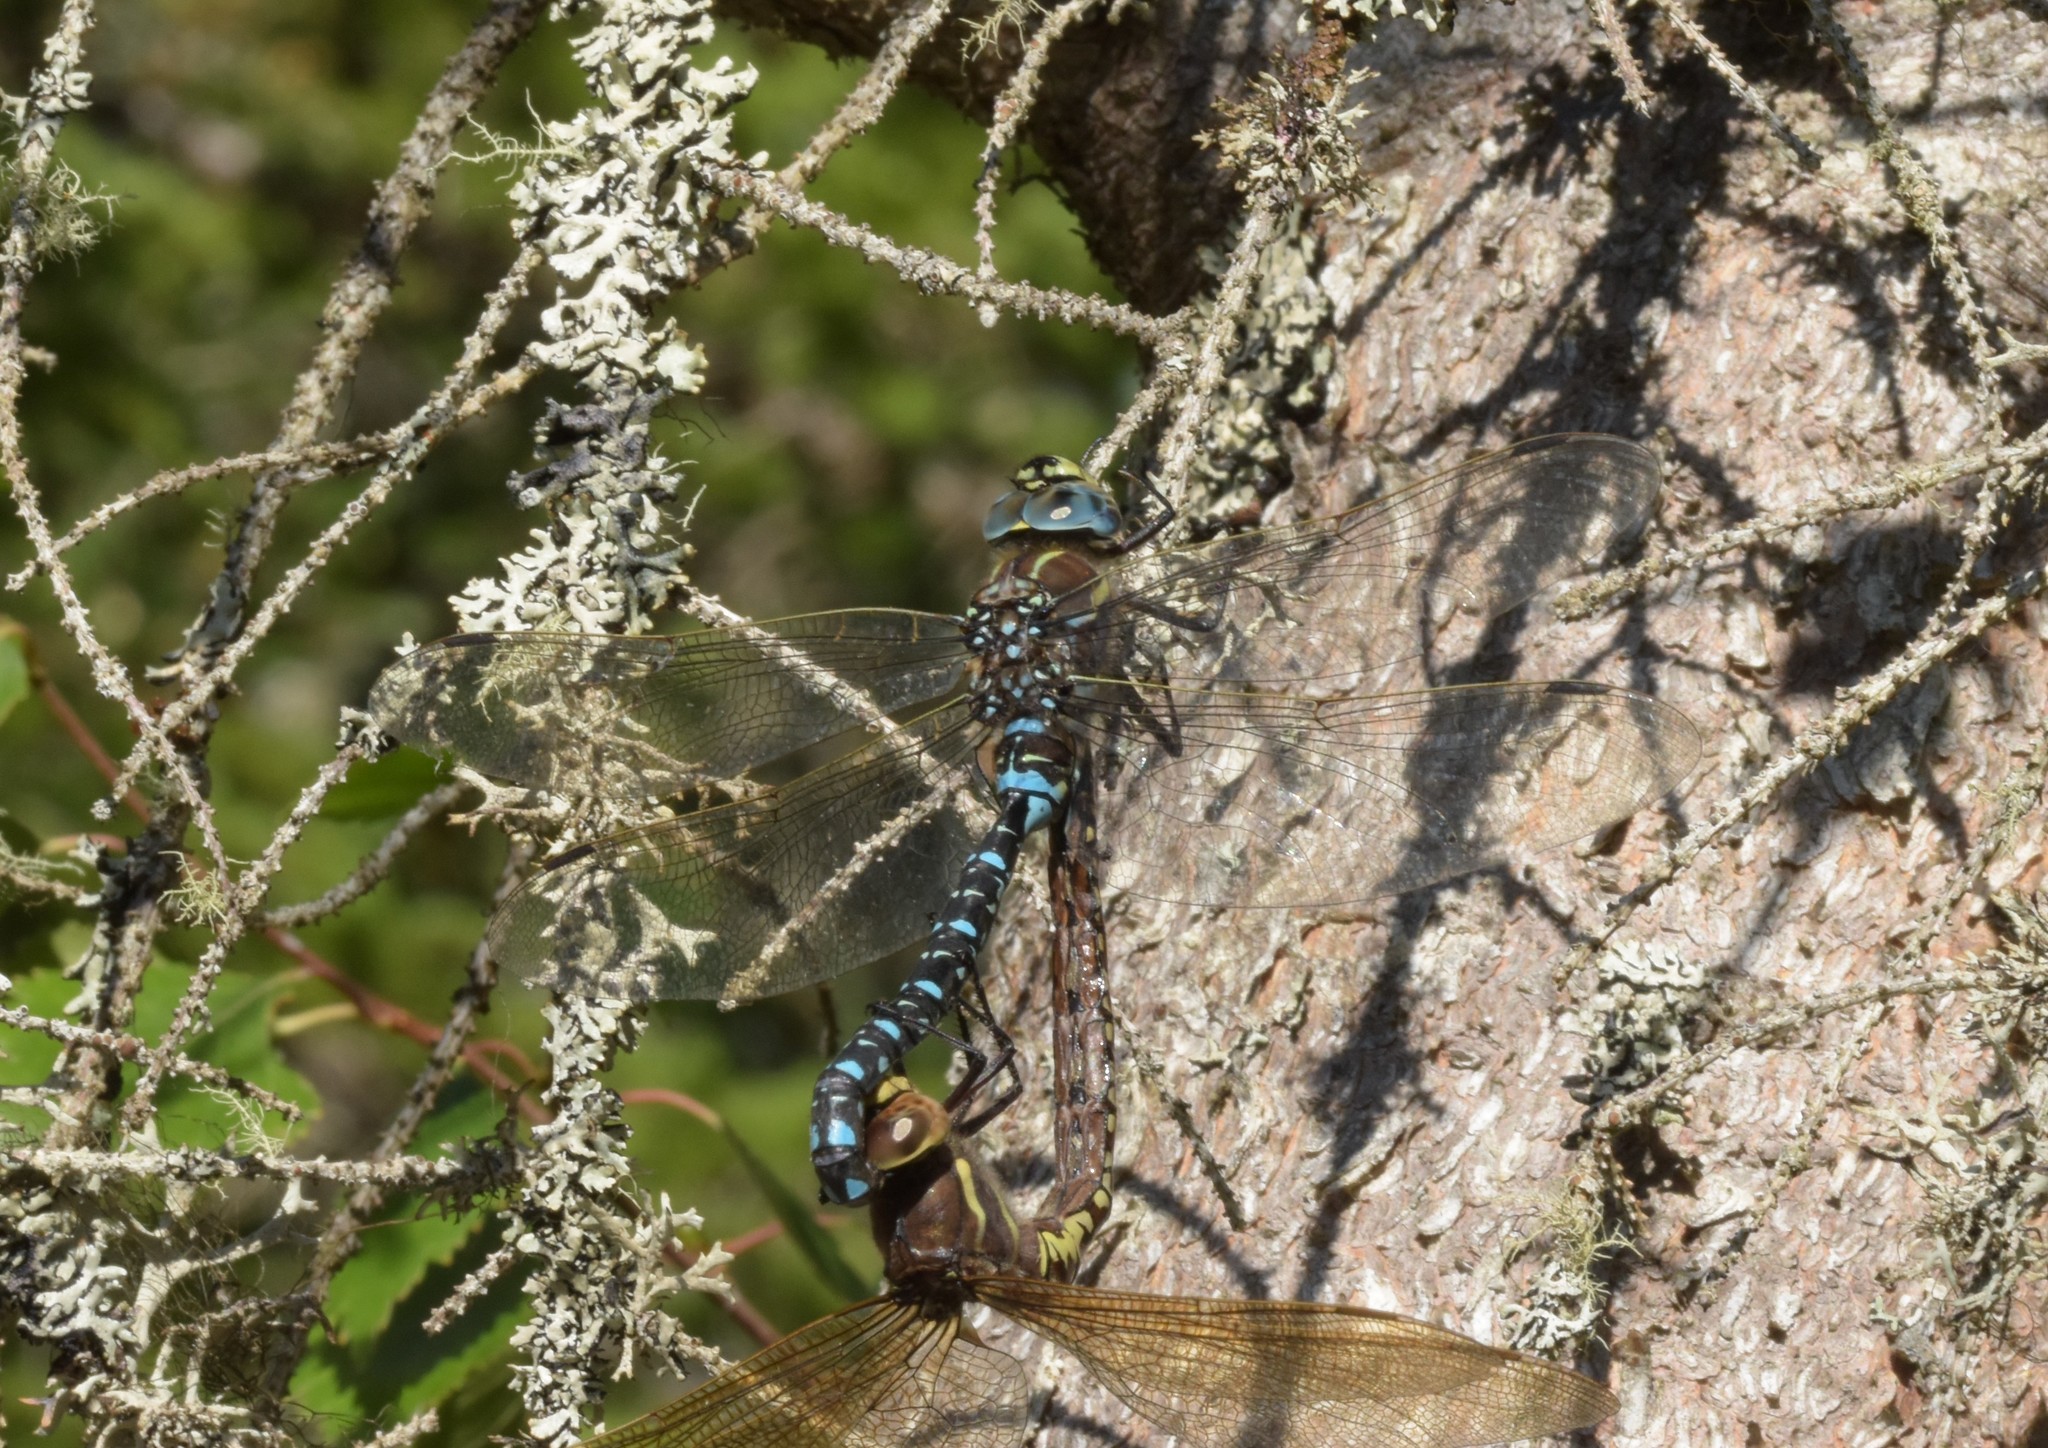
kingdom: Animalia
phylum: Arthropoda
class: Insecta
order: Odonata
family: Aeshnidae
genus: Aeshna
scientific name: Aeshna juncea
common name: Moorland hawker
